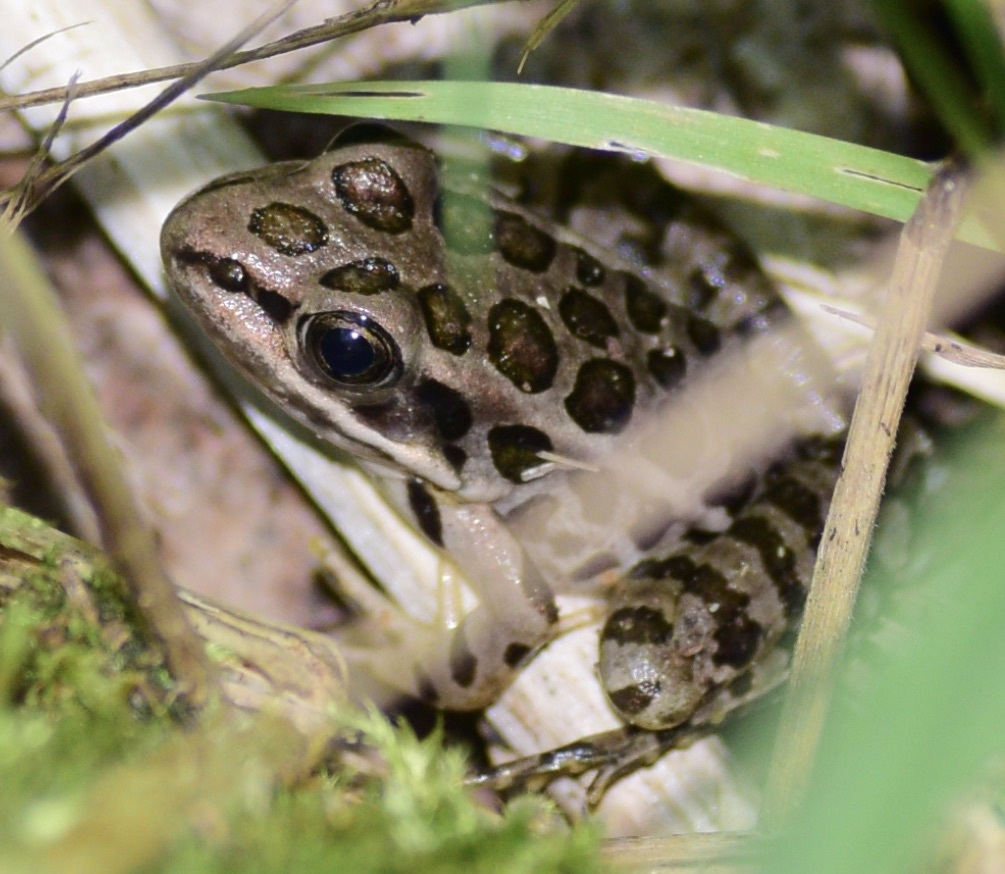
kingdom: Animalia
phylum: Chordata
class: Amphibia
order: Anura
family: Ranidae
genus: Lithobates
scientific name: Lithobates palustris
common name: Pickerel frog
